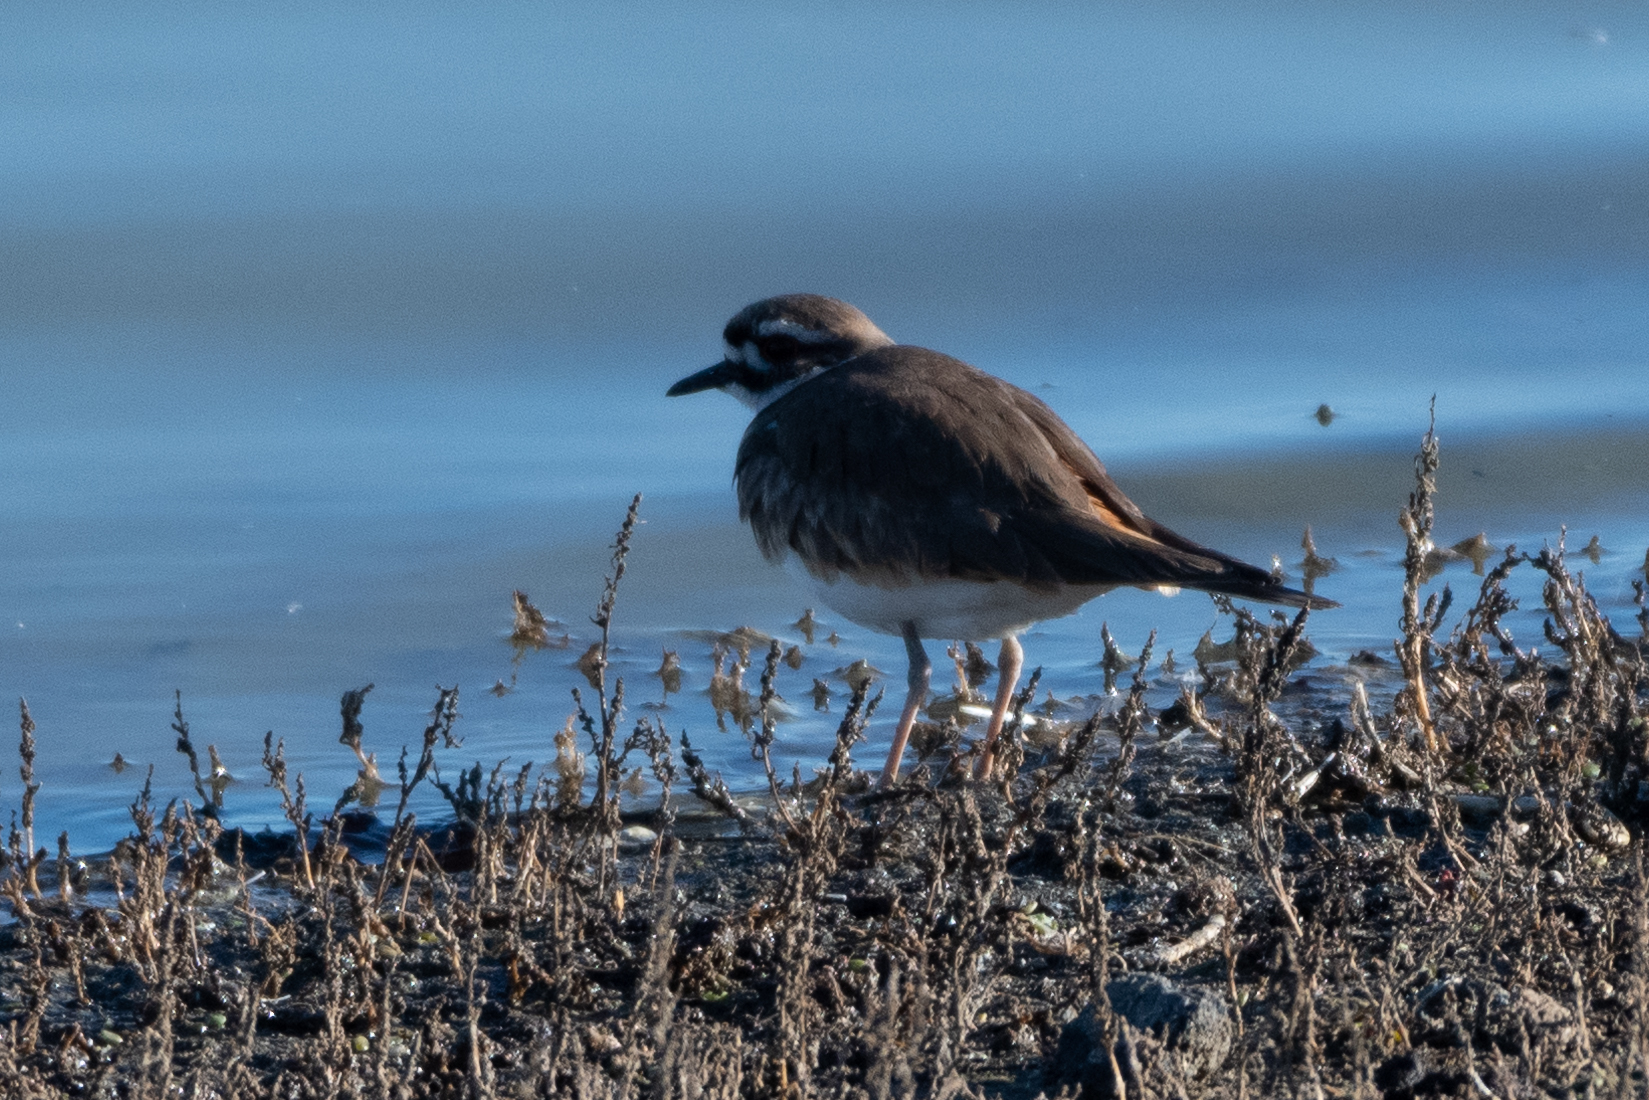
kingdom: Animalia
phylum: Chordata
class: Aves
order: Charadriiformes
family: Charadriidae
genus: Charadrius
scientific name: Charadrius vociferus
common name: Killdeer
